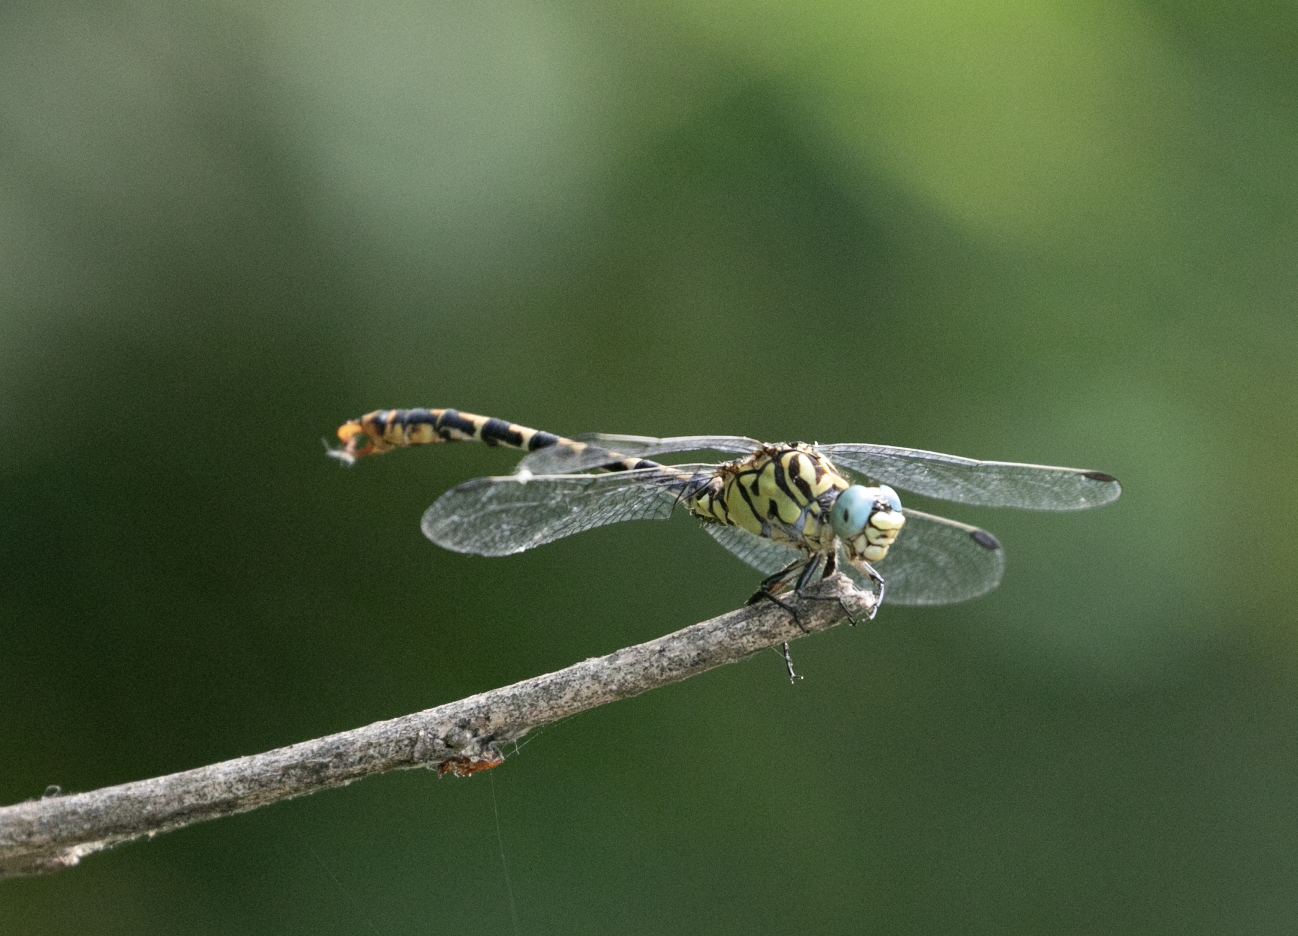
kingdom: Animalia
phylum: Arthropoda
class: Insecta
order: Odonata
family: Gomphidae
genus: Onychogomphus
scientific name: Onychogomphus forcipatus
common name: Small pincertail
